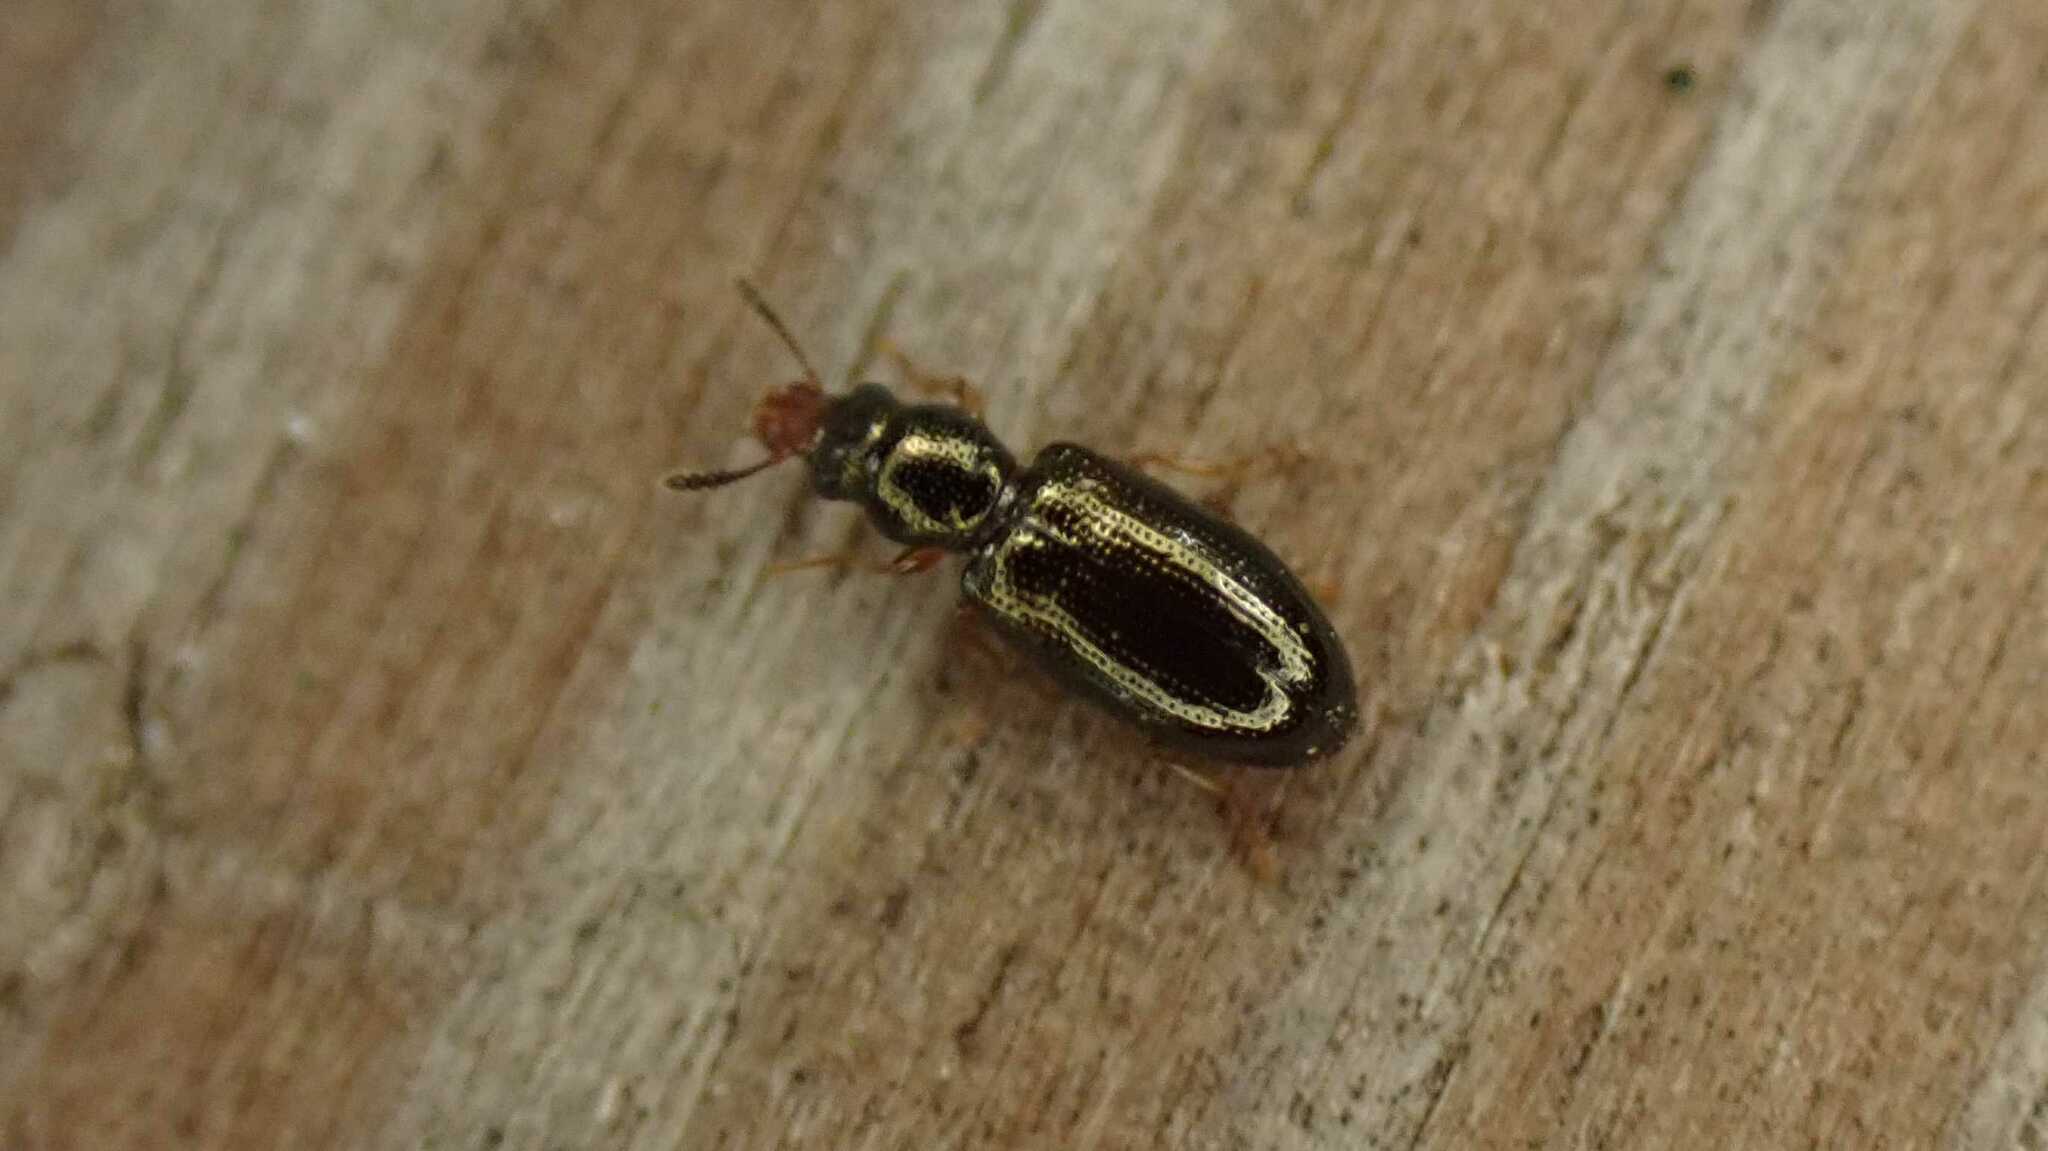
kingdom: Animalia
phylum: Arthropoda
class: Insecta
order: Coleoptera
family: Salpingidae
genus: Salpingus
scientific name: Salpingus planirostris
